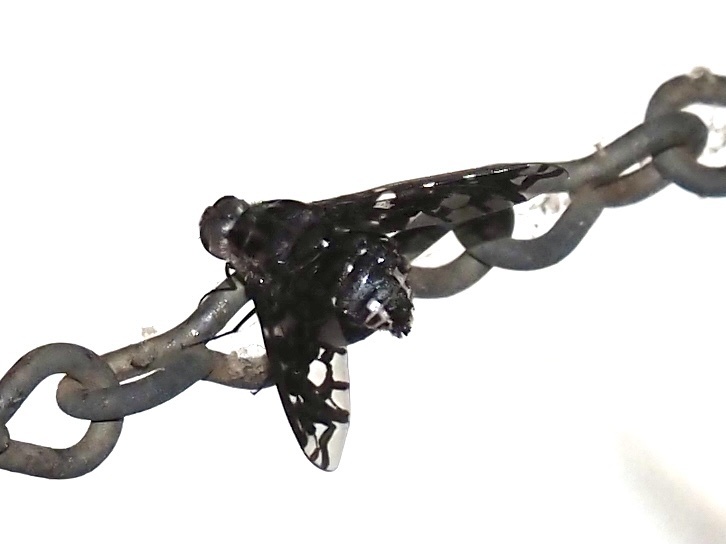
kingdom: Animalia
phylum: Arthropoda
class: Insecta
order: Diptera
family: Bombyliidae
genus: Xenox
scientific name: Xenox tigrinus
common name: Tiger bee fly
